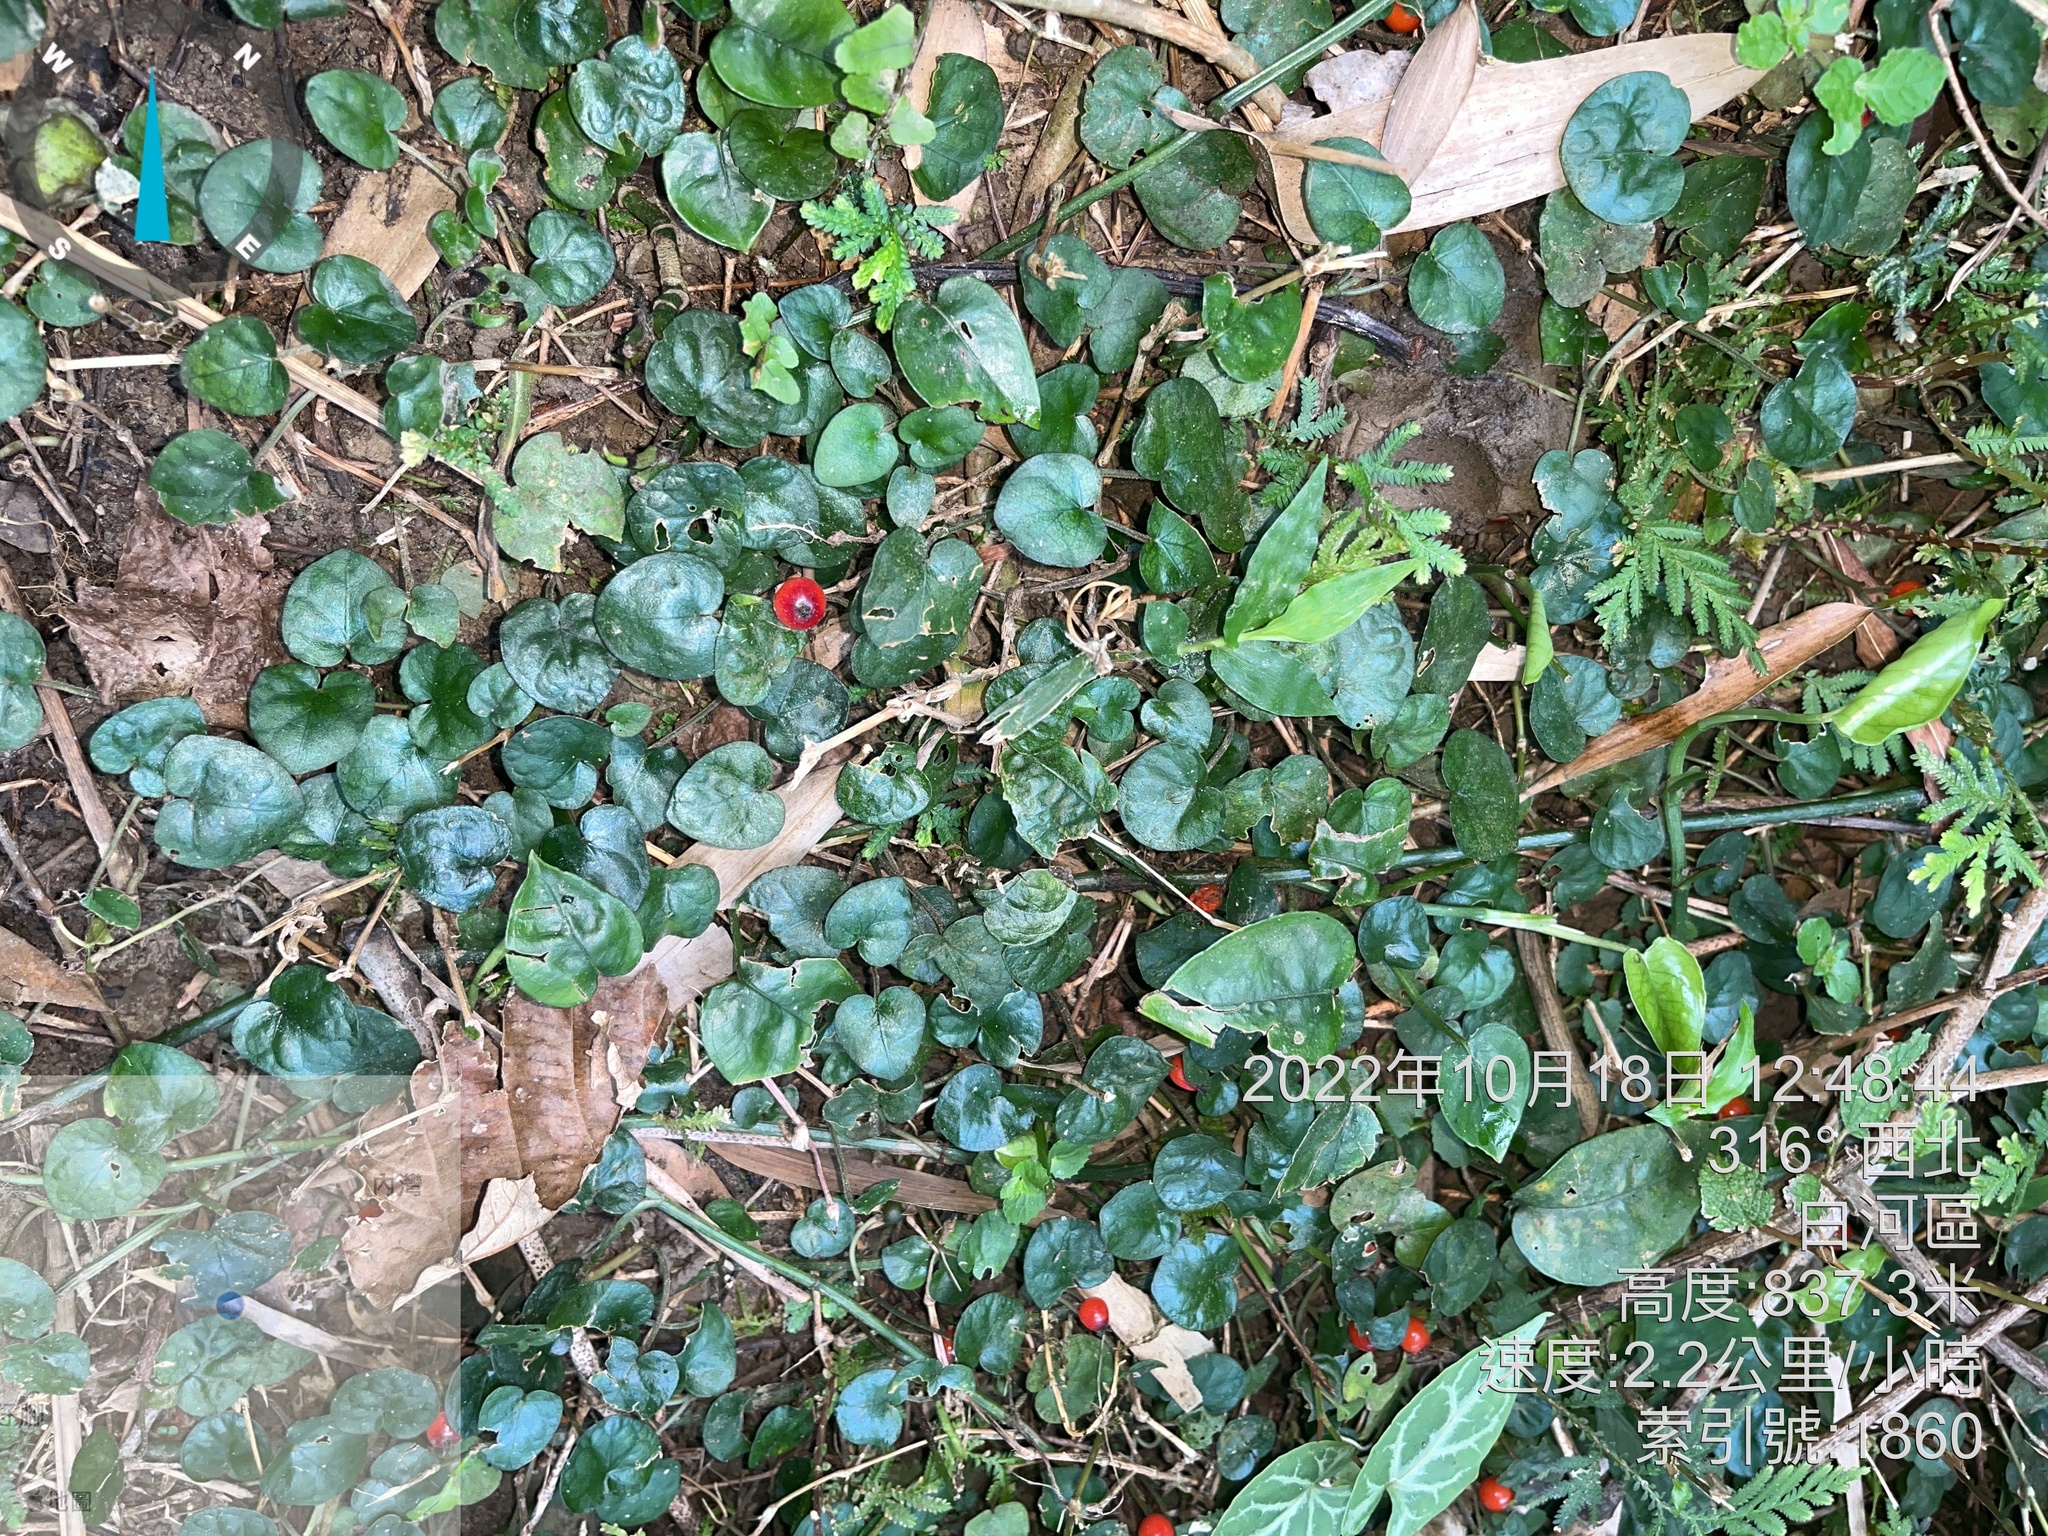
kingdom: Plantae
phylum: Tracheophyta
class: Magnoliopsida
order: Gentianales
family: Rubiaceae
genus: Geophila
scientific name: Geophila herbacea
